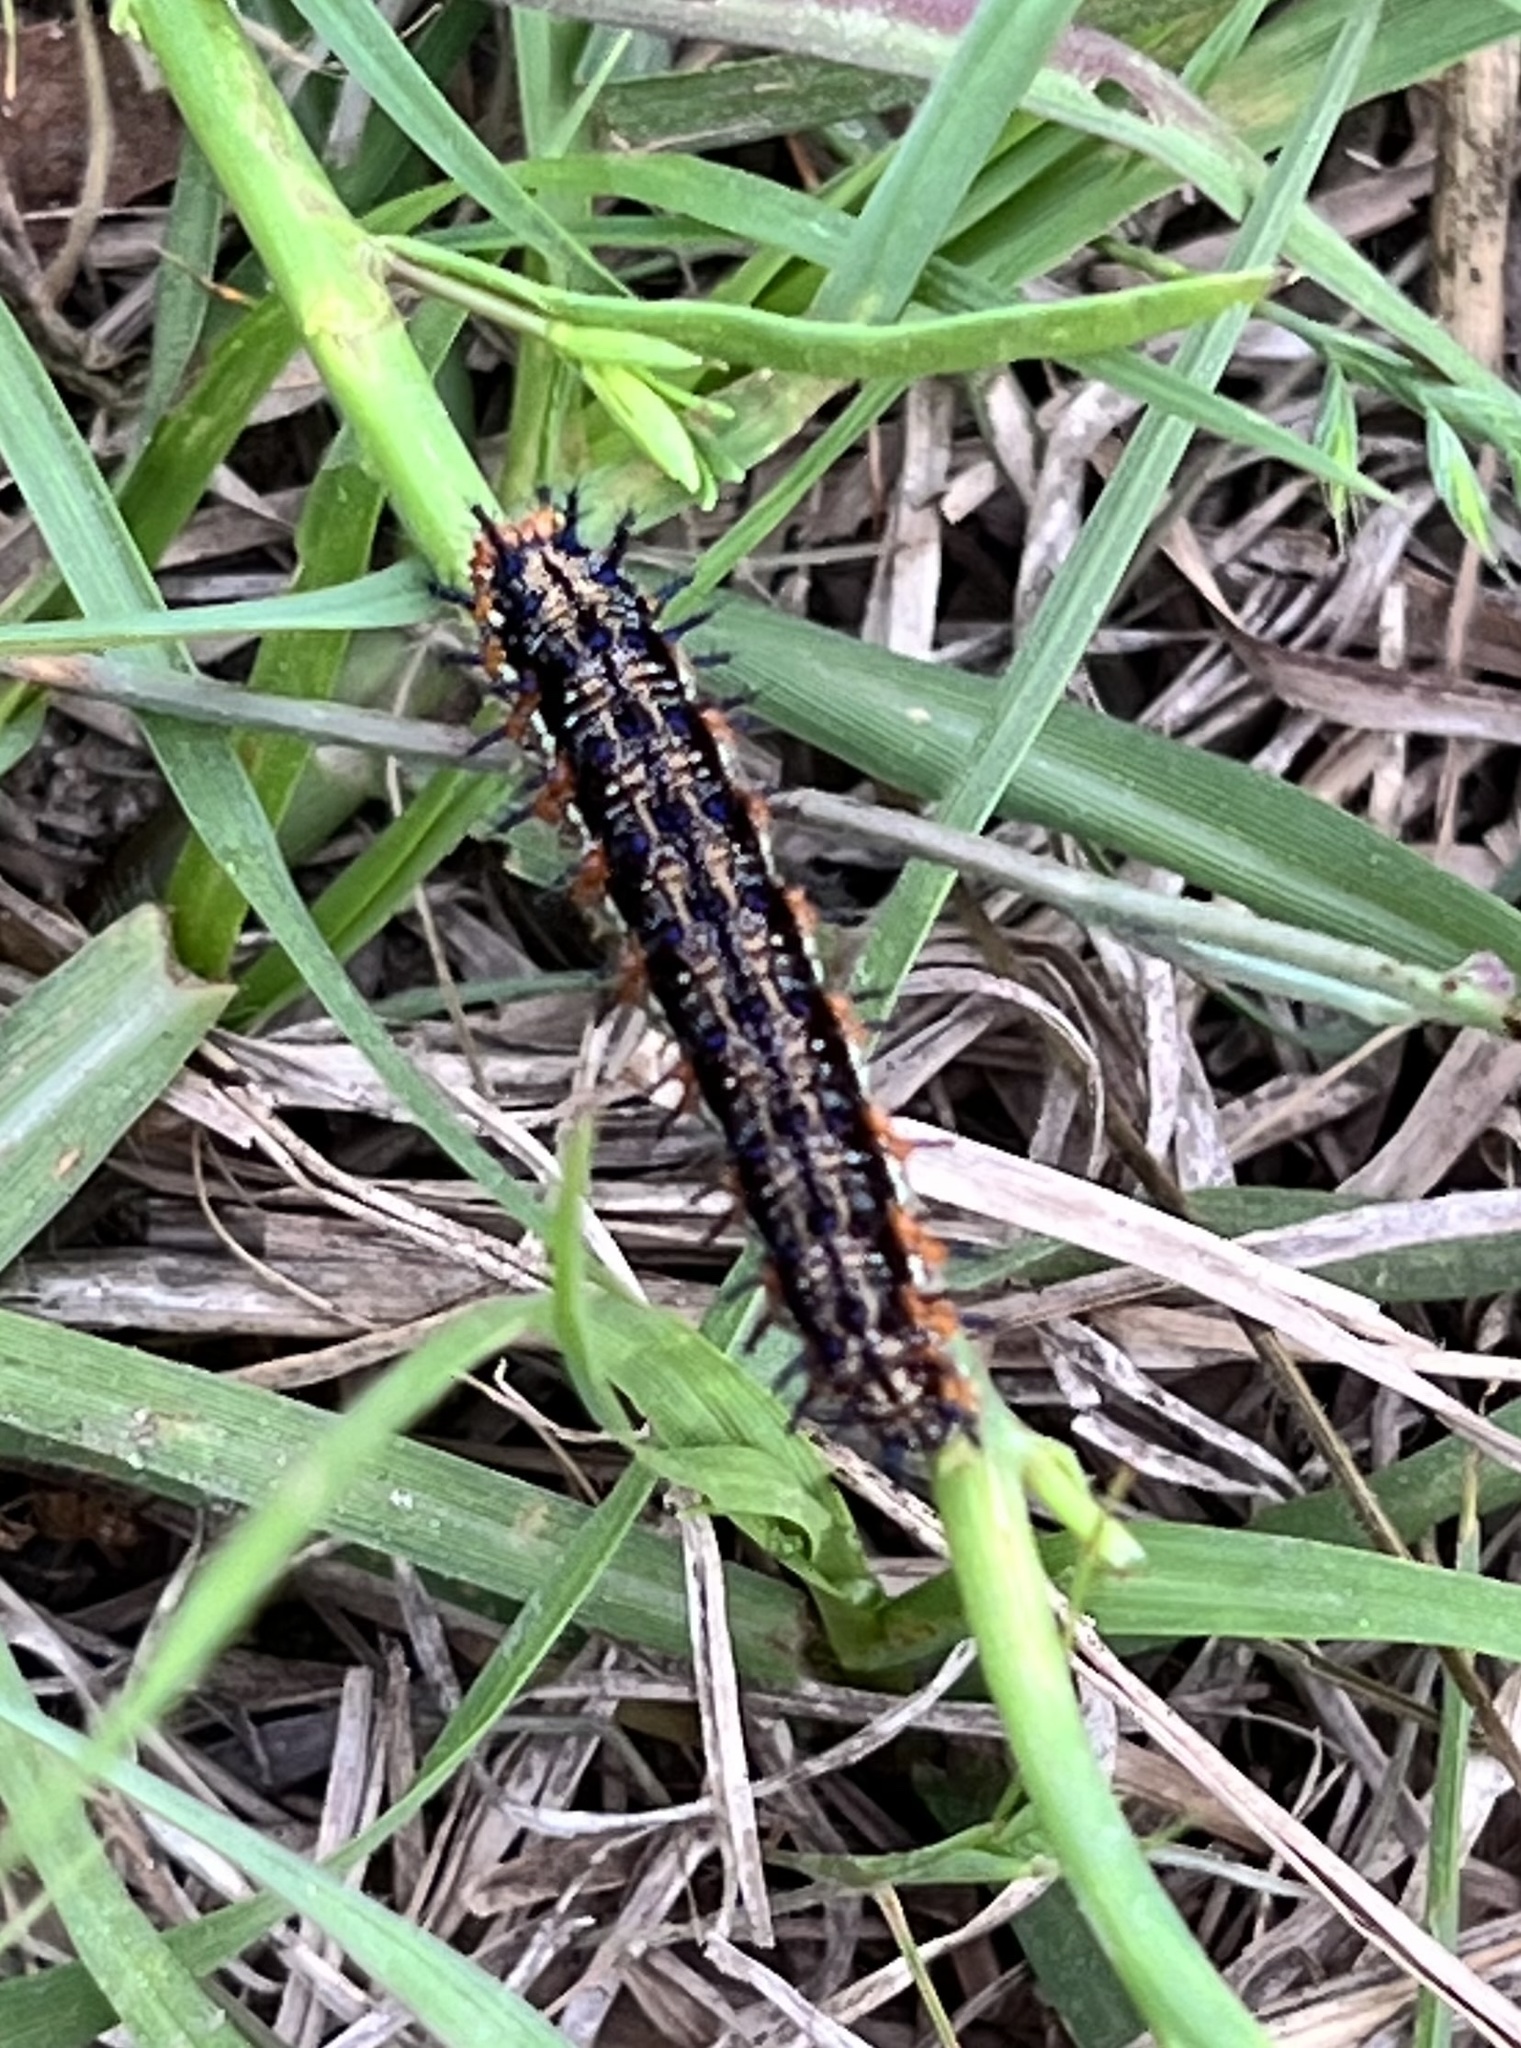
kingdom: Animalia
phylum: Arthropoda
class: Insecta
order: Lepidoptera
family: Nymphalidae
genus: Junonia
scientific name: Junonia coenia
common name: Common buckeye
